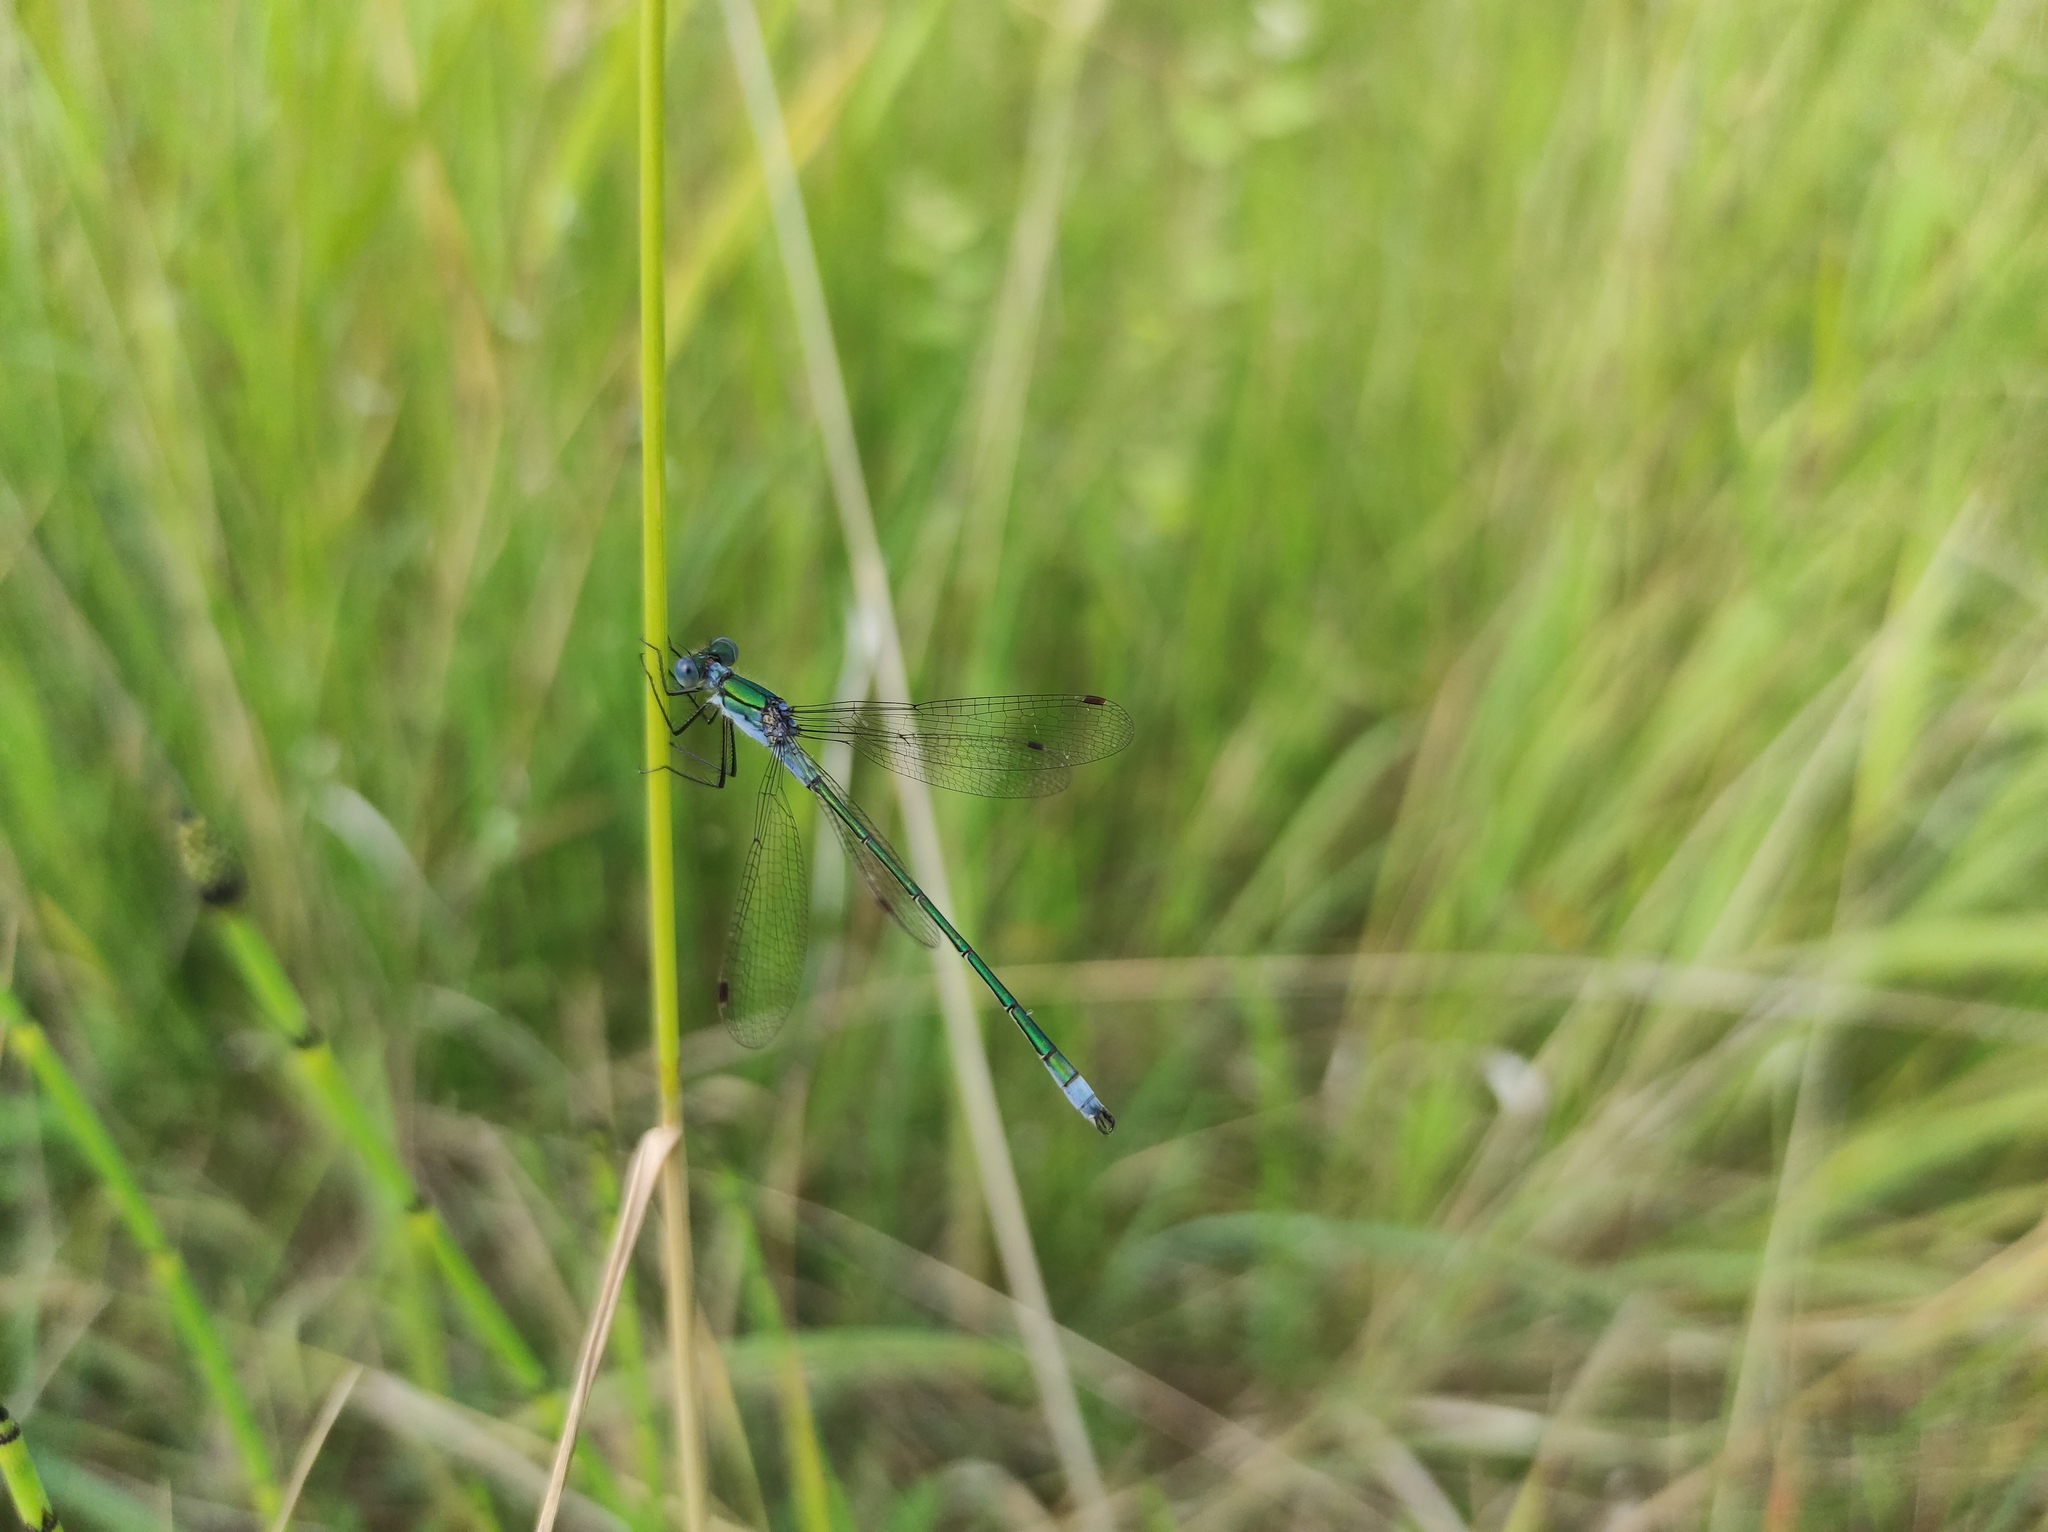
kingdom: Animalia
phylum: Arthropoda
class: Insecta
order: Odonata
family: Lestidae
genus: Lestes
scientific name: Lestes sponsa
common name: Common spreadwing
